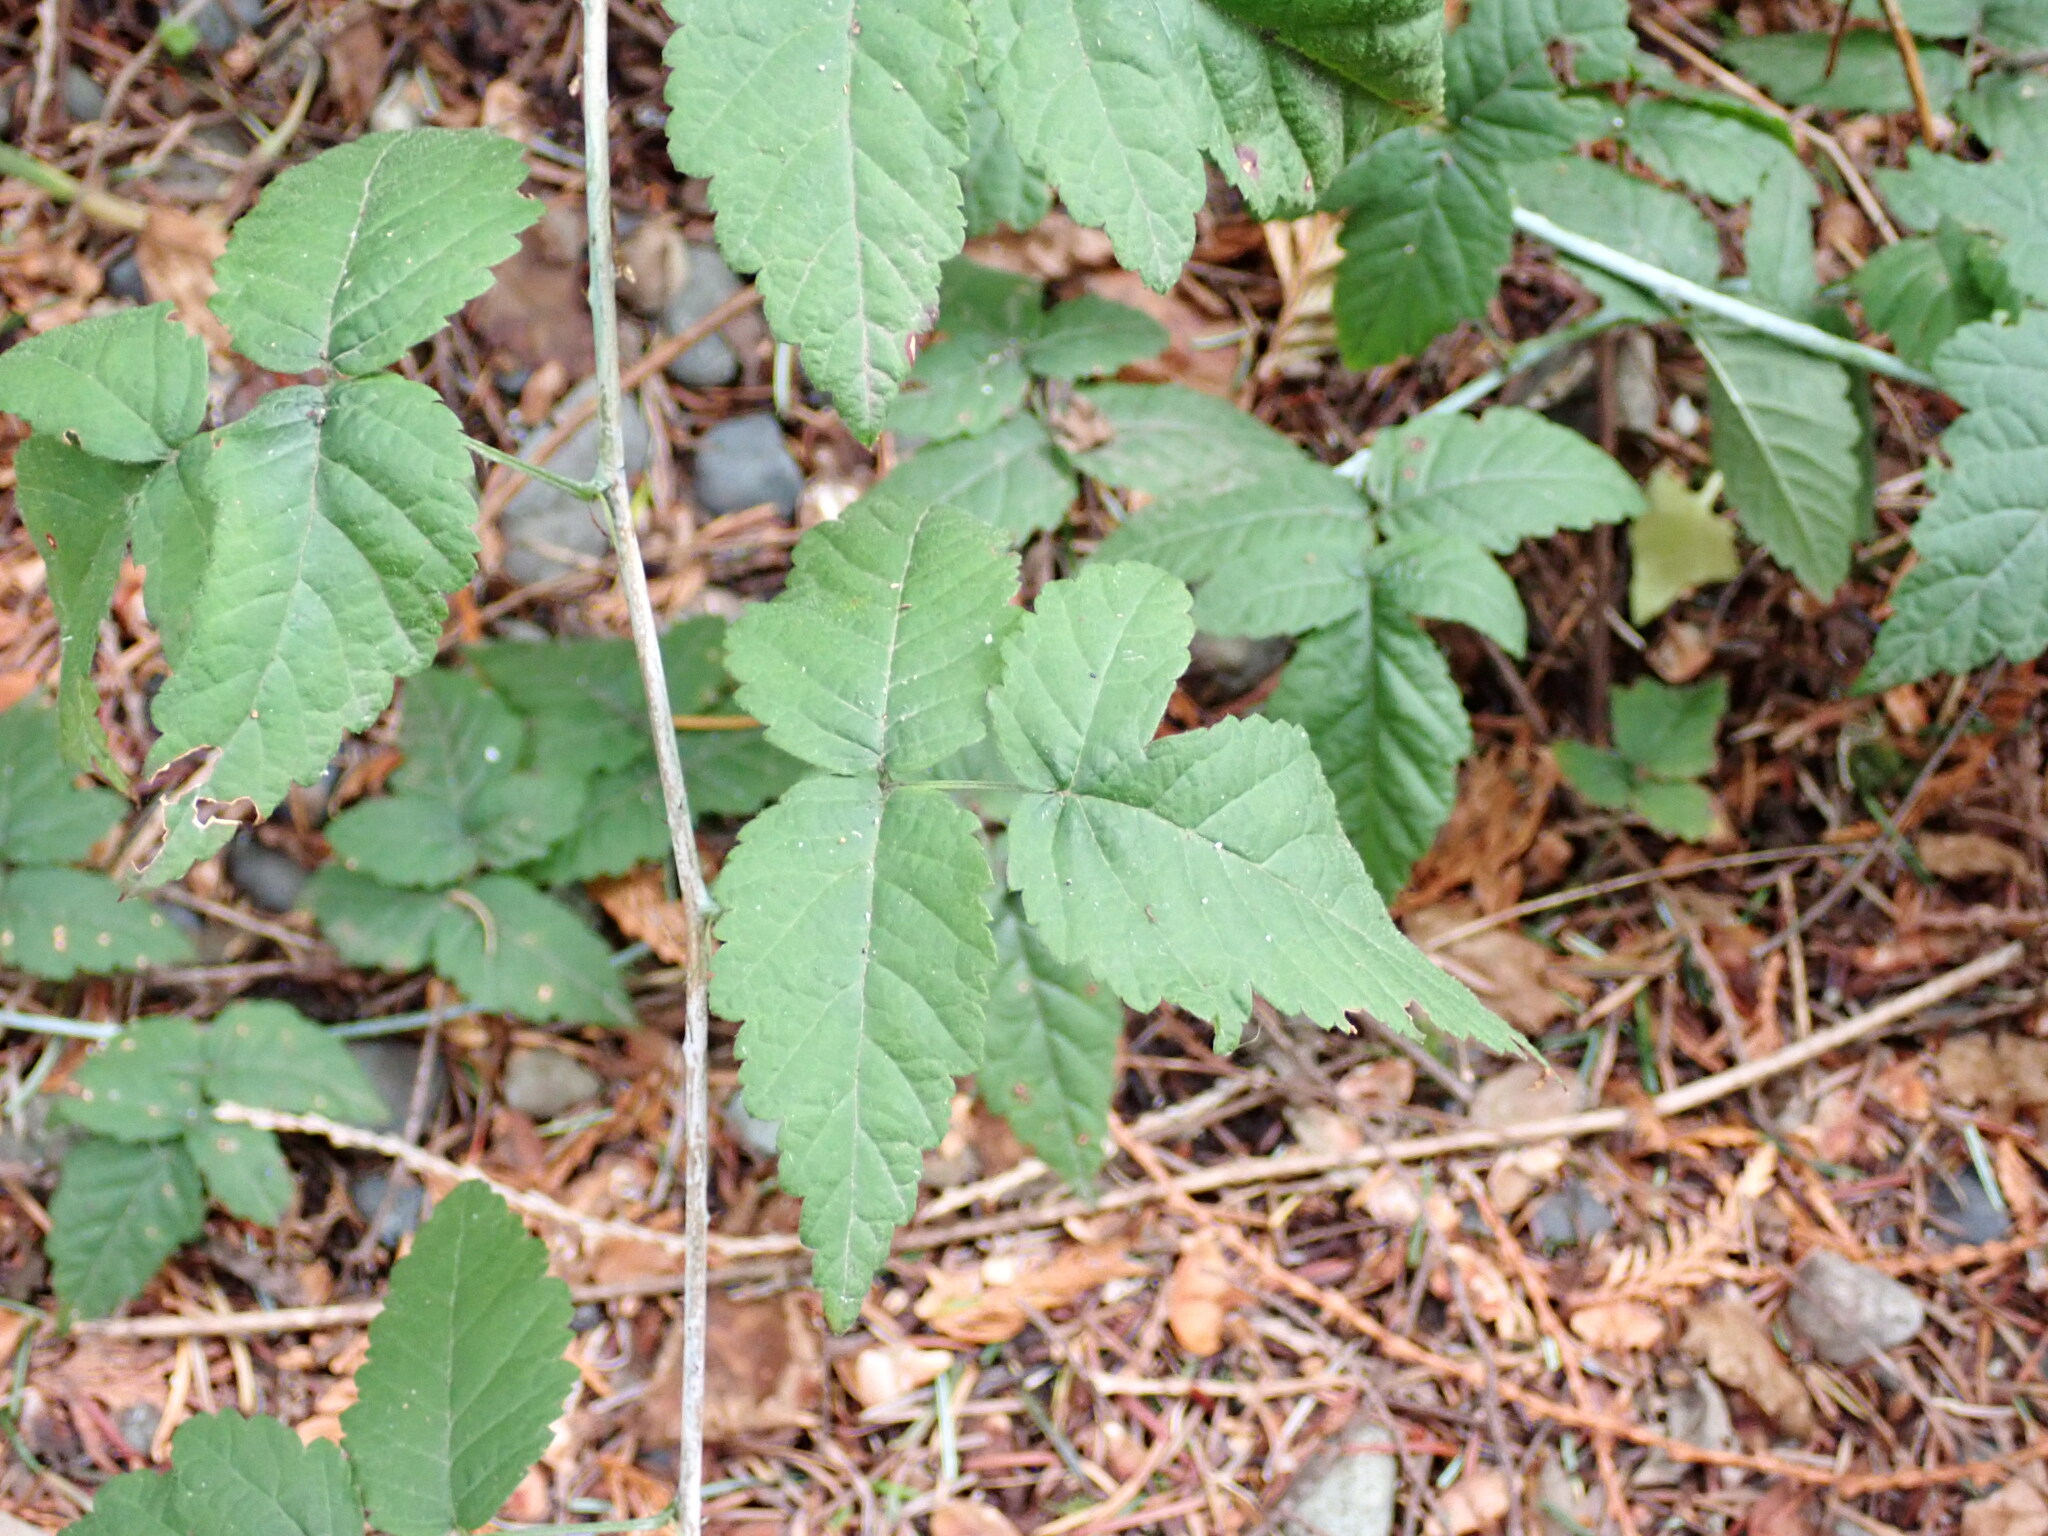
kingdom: Plantae
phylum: Tracheophyta
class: Magnoliopsida
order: Rosales
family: Rosaceae
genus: Rubus
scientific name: Rubus ursinus
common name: Pacific blackberry
